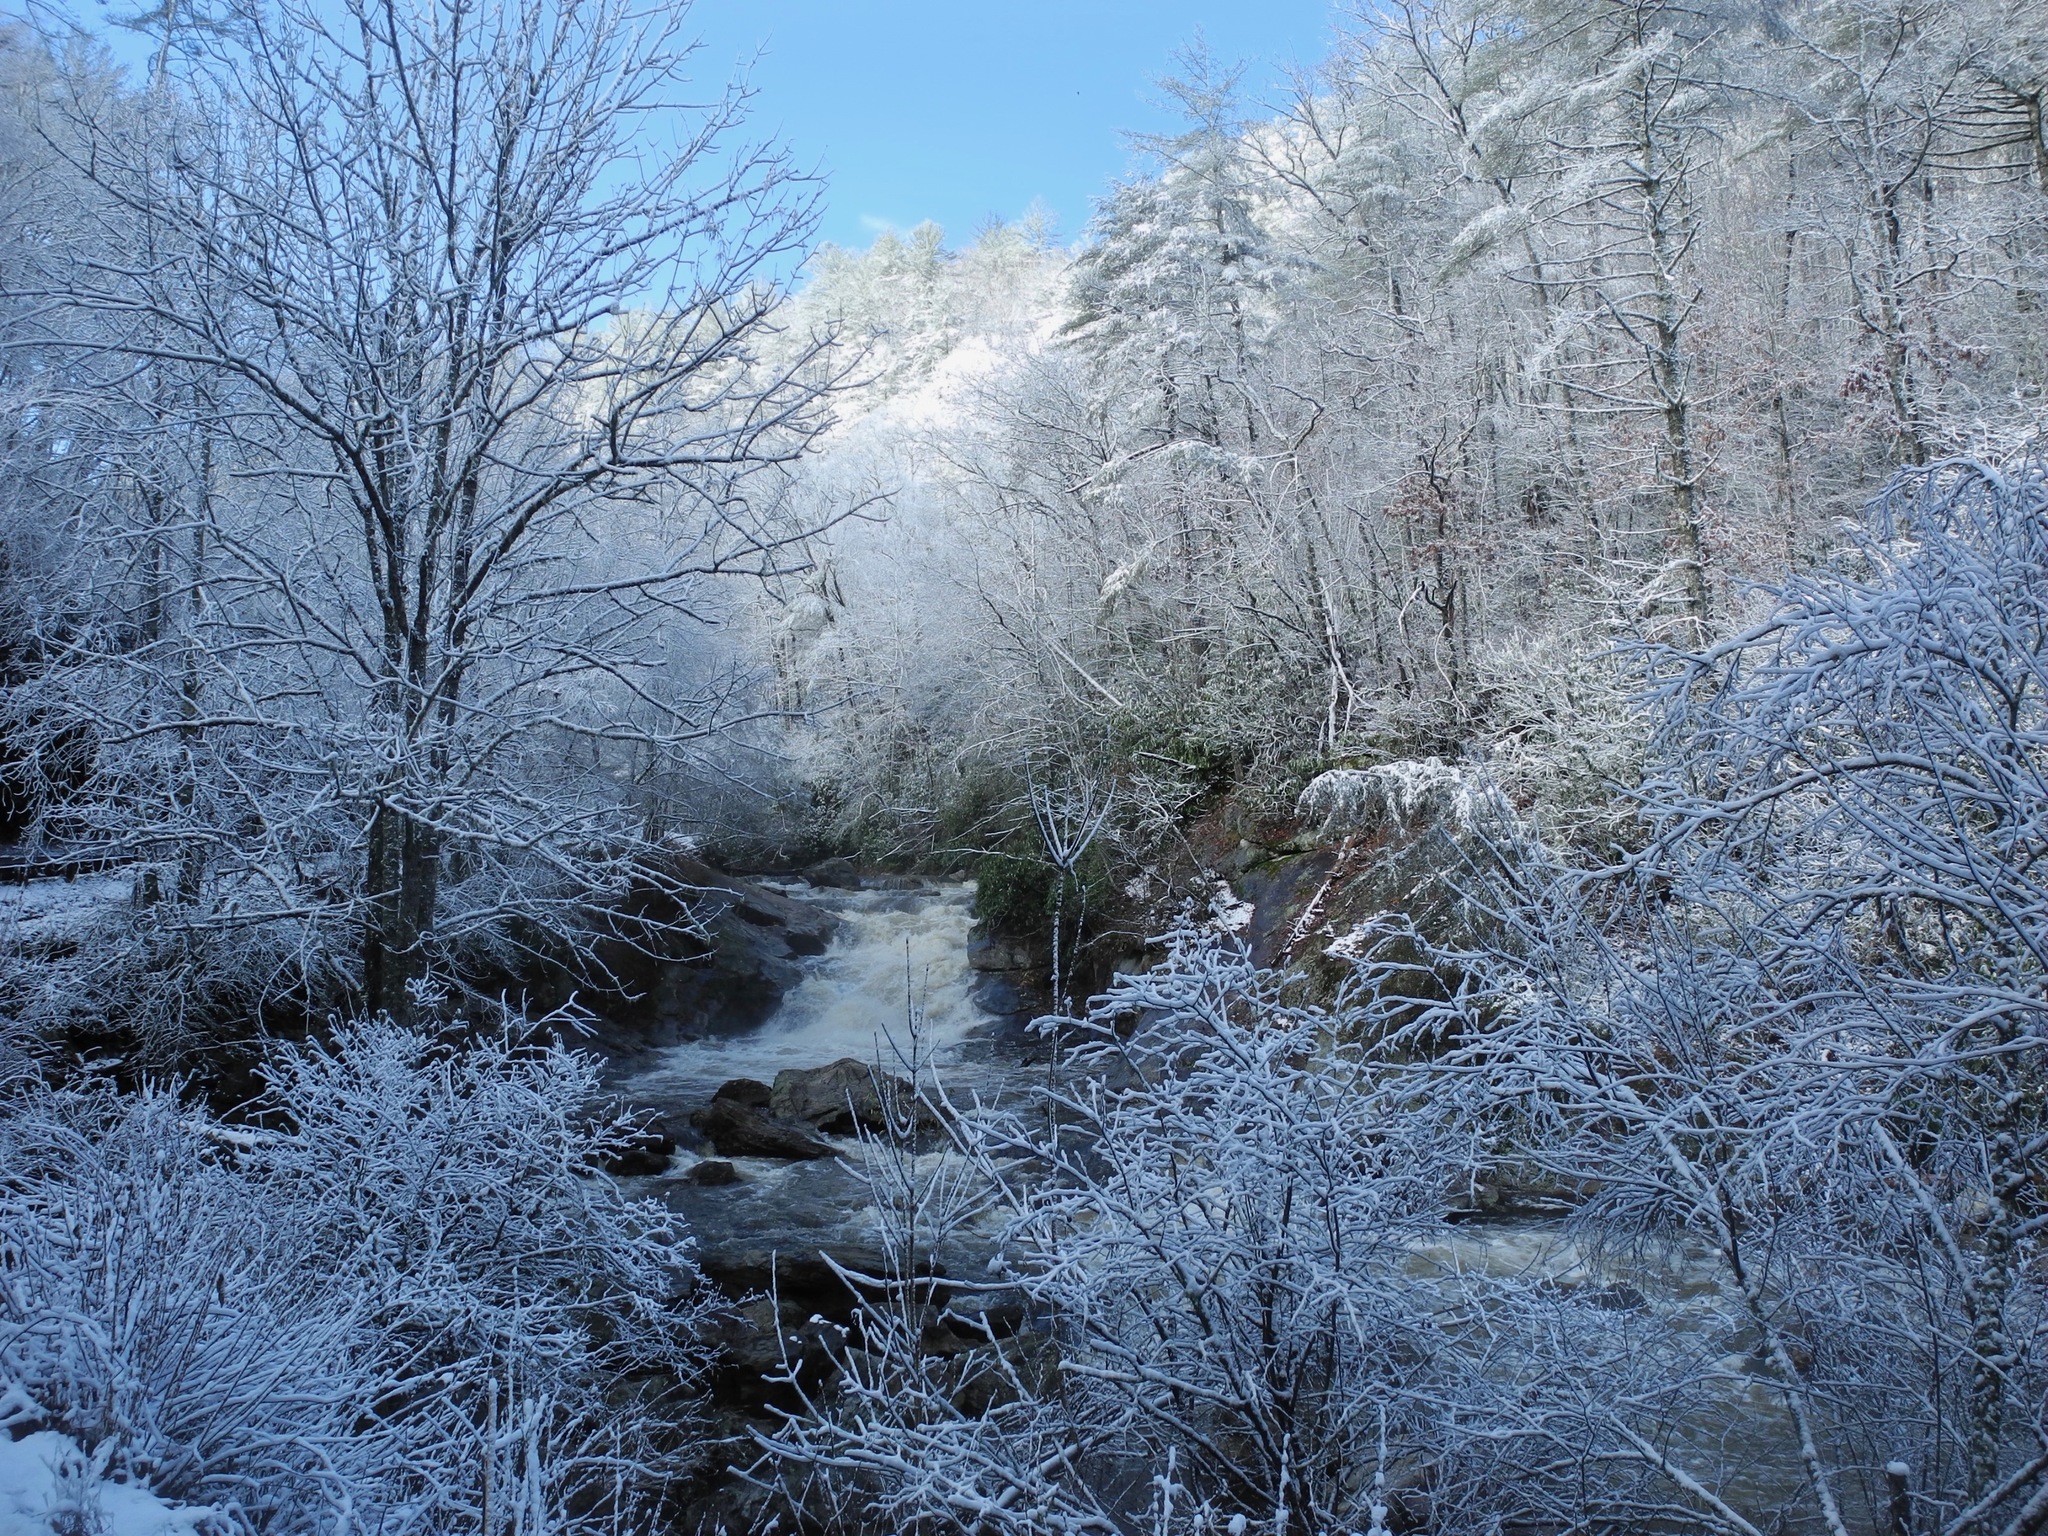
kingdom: Fungi
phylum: Ascomycota
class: Lecanoromycetes
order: Umbilicariales
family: Umbilicariaceae
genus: Umbilicaria
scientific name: Umbilicaria mammulata
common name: Smooth rock tripe
